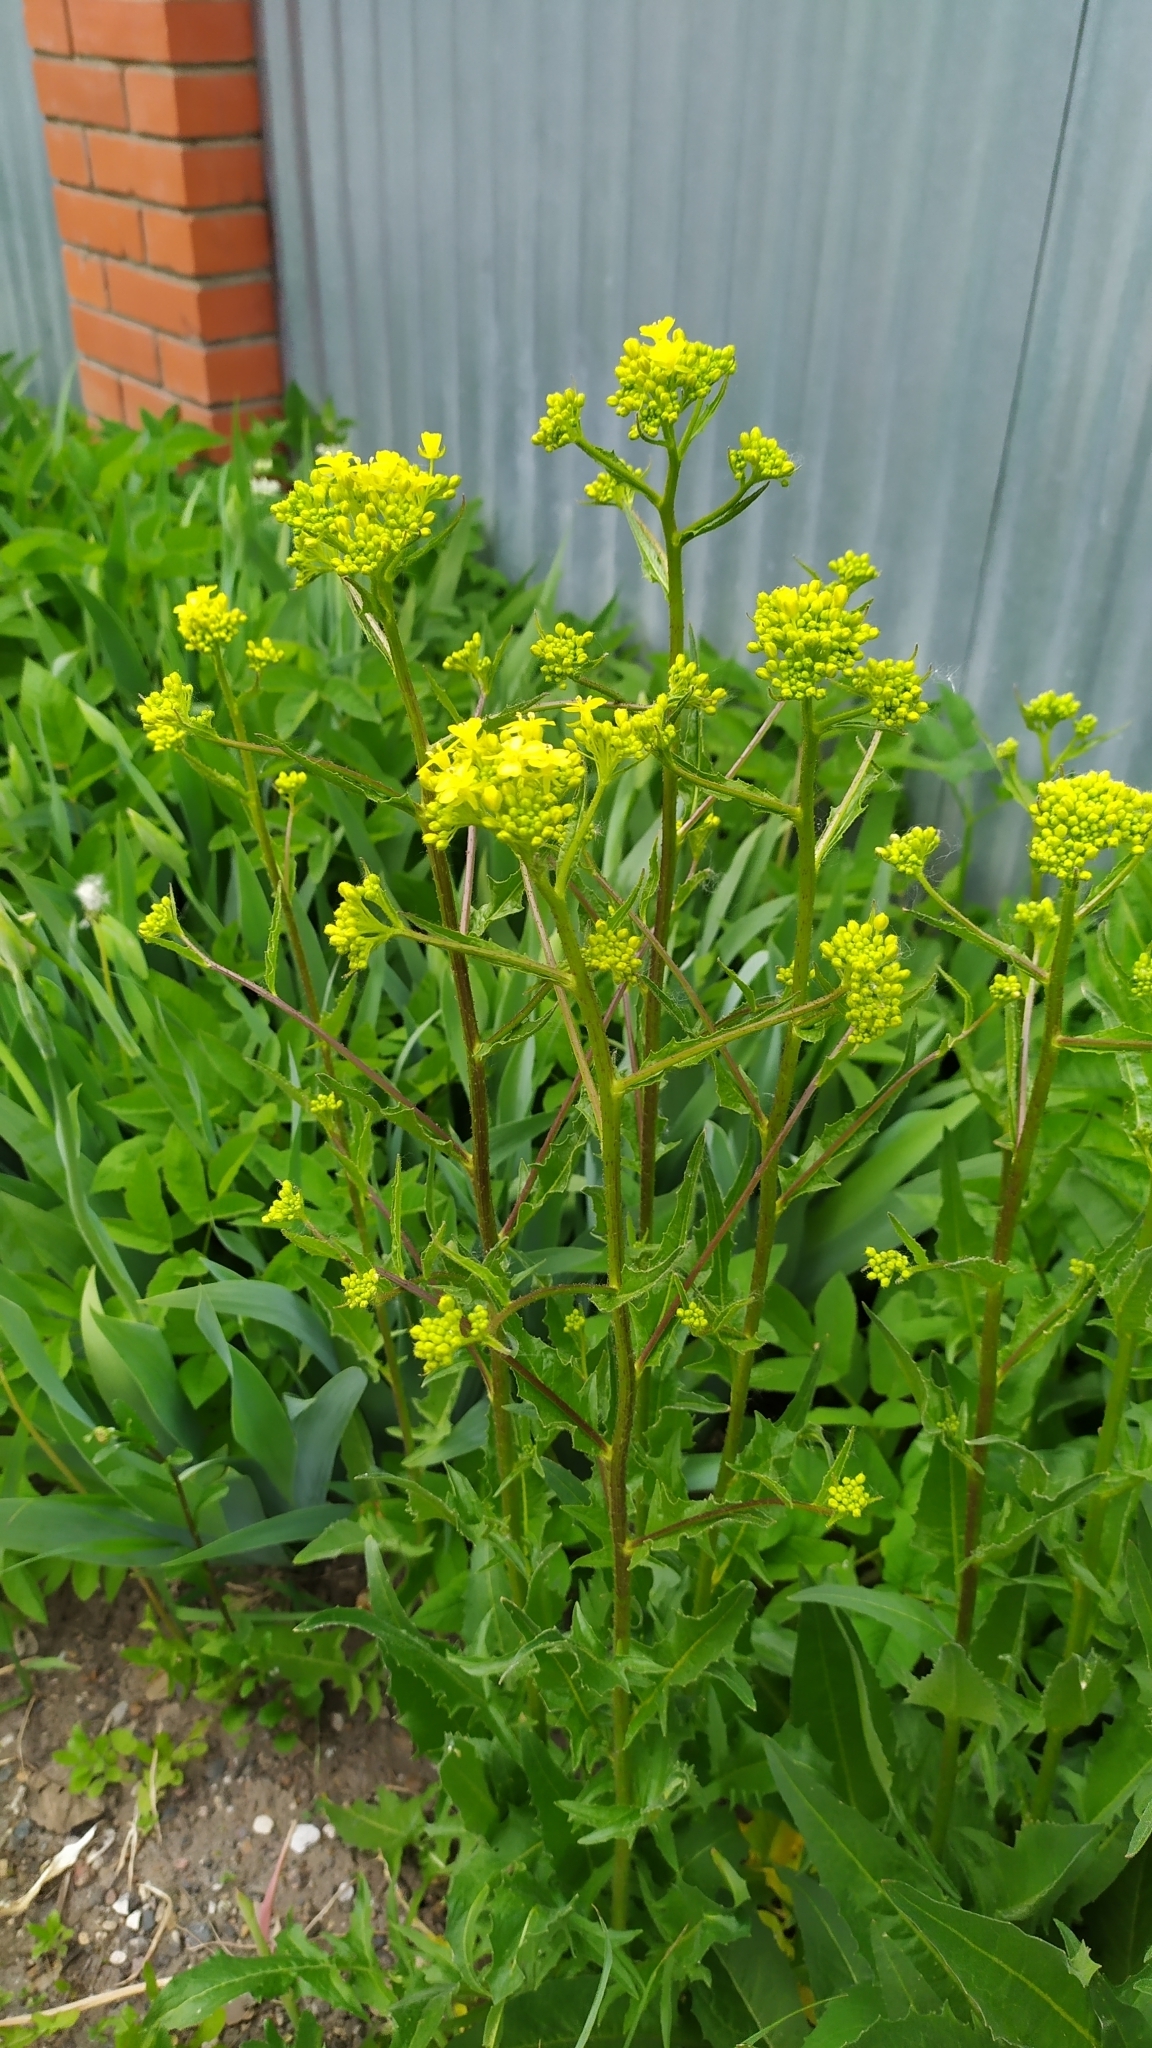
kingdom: Plantae
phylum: Tracheophyta
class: Magnoliopsida
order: Brassicales
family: Brassicaceae
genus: Bunias
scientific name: Bunias orientalis
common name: Warty-cabbage
